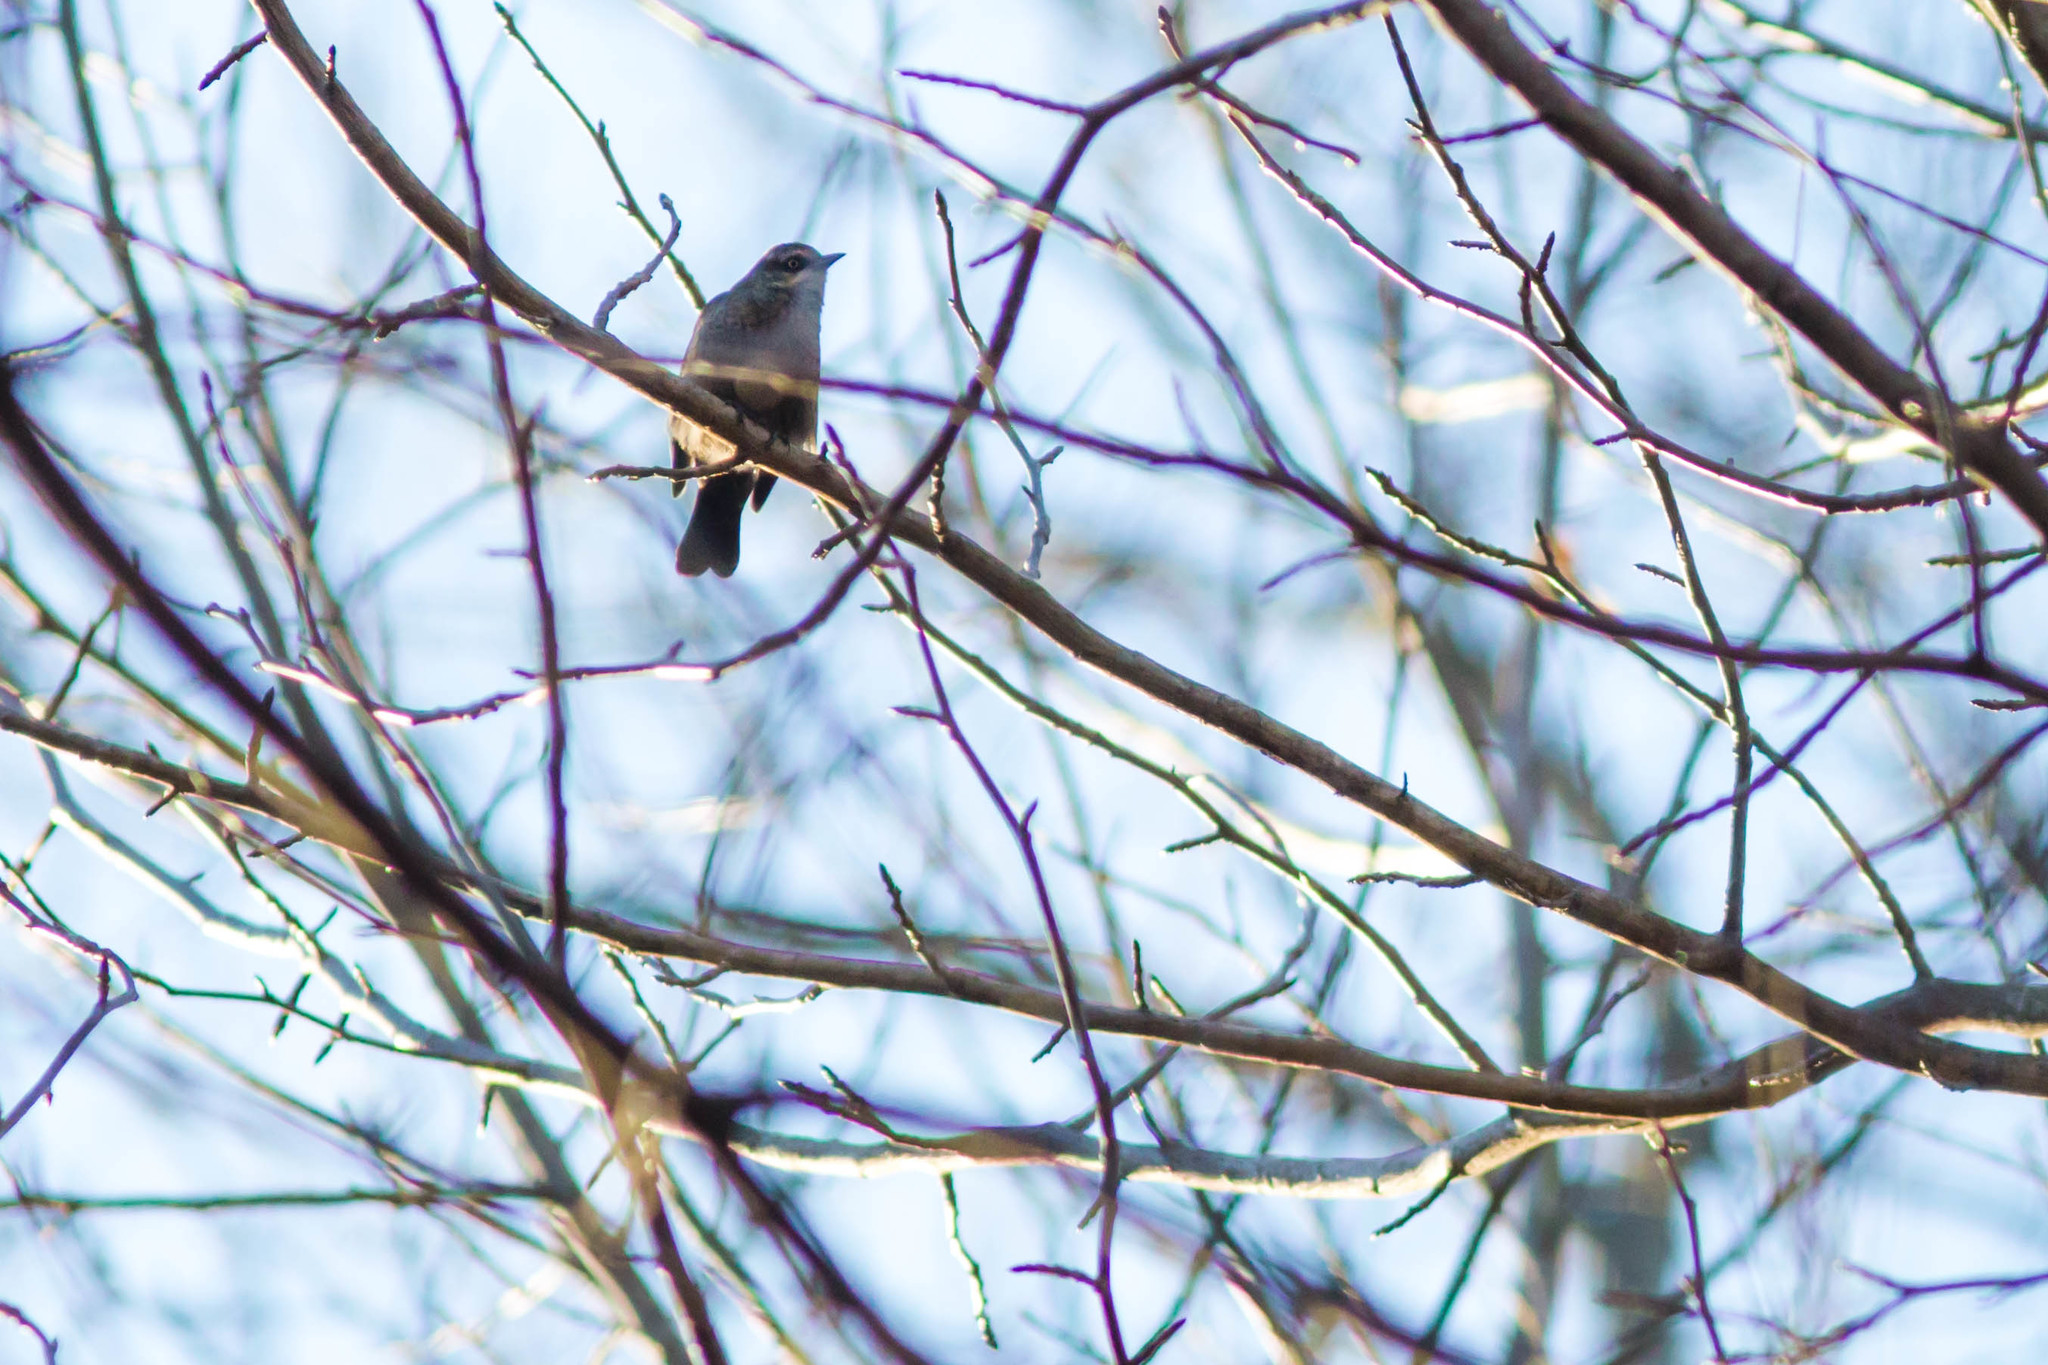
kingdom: Animalia
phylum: Chordata
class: Aves
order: Passeriformes
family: Icteridae
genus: Euphagus
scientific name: Euphagus carolinus
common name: Rusty blackbird
